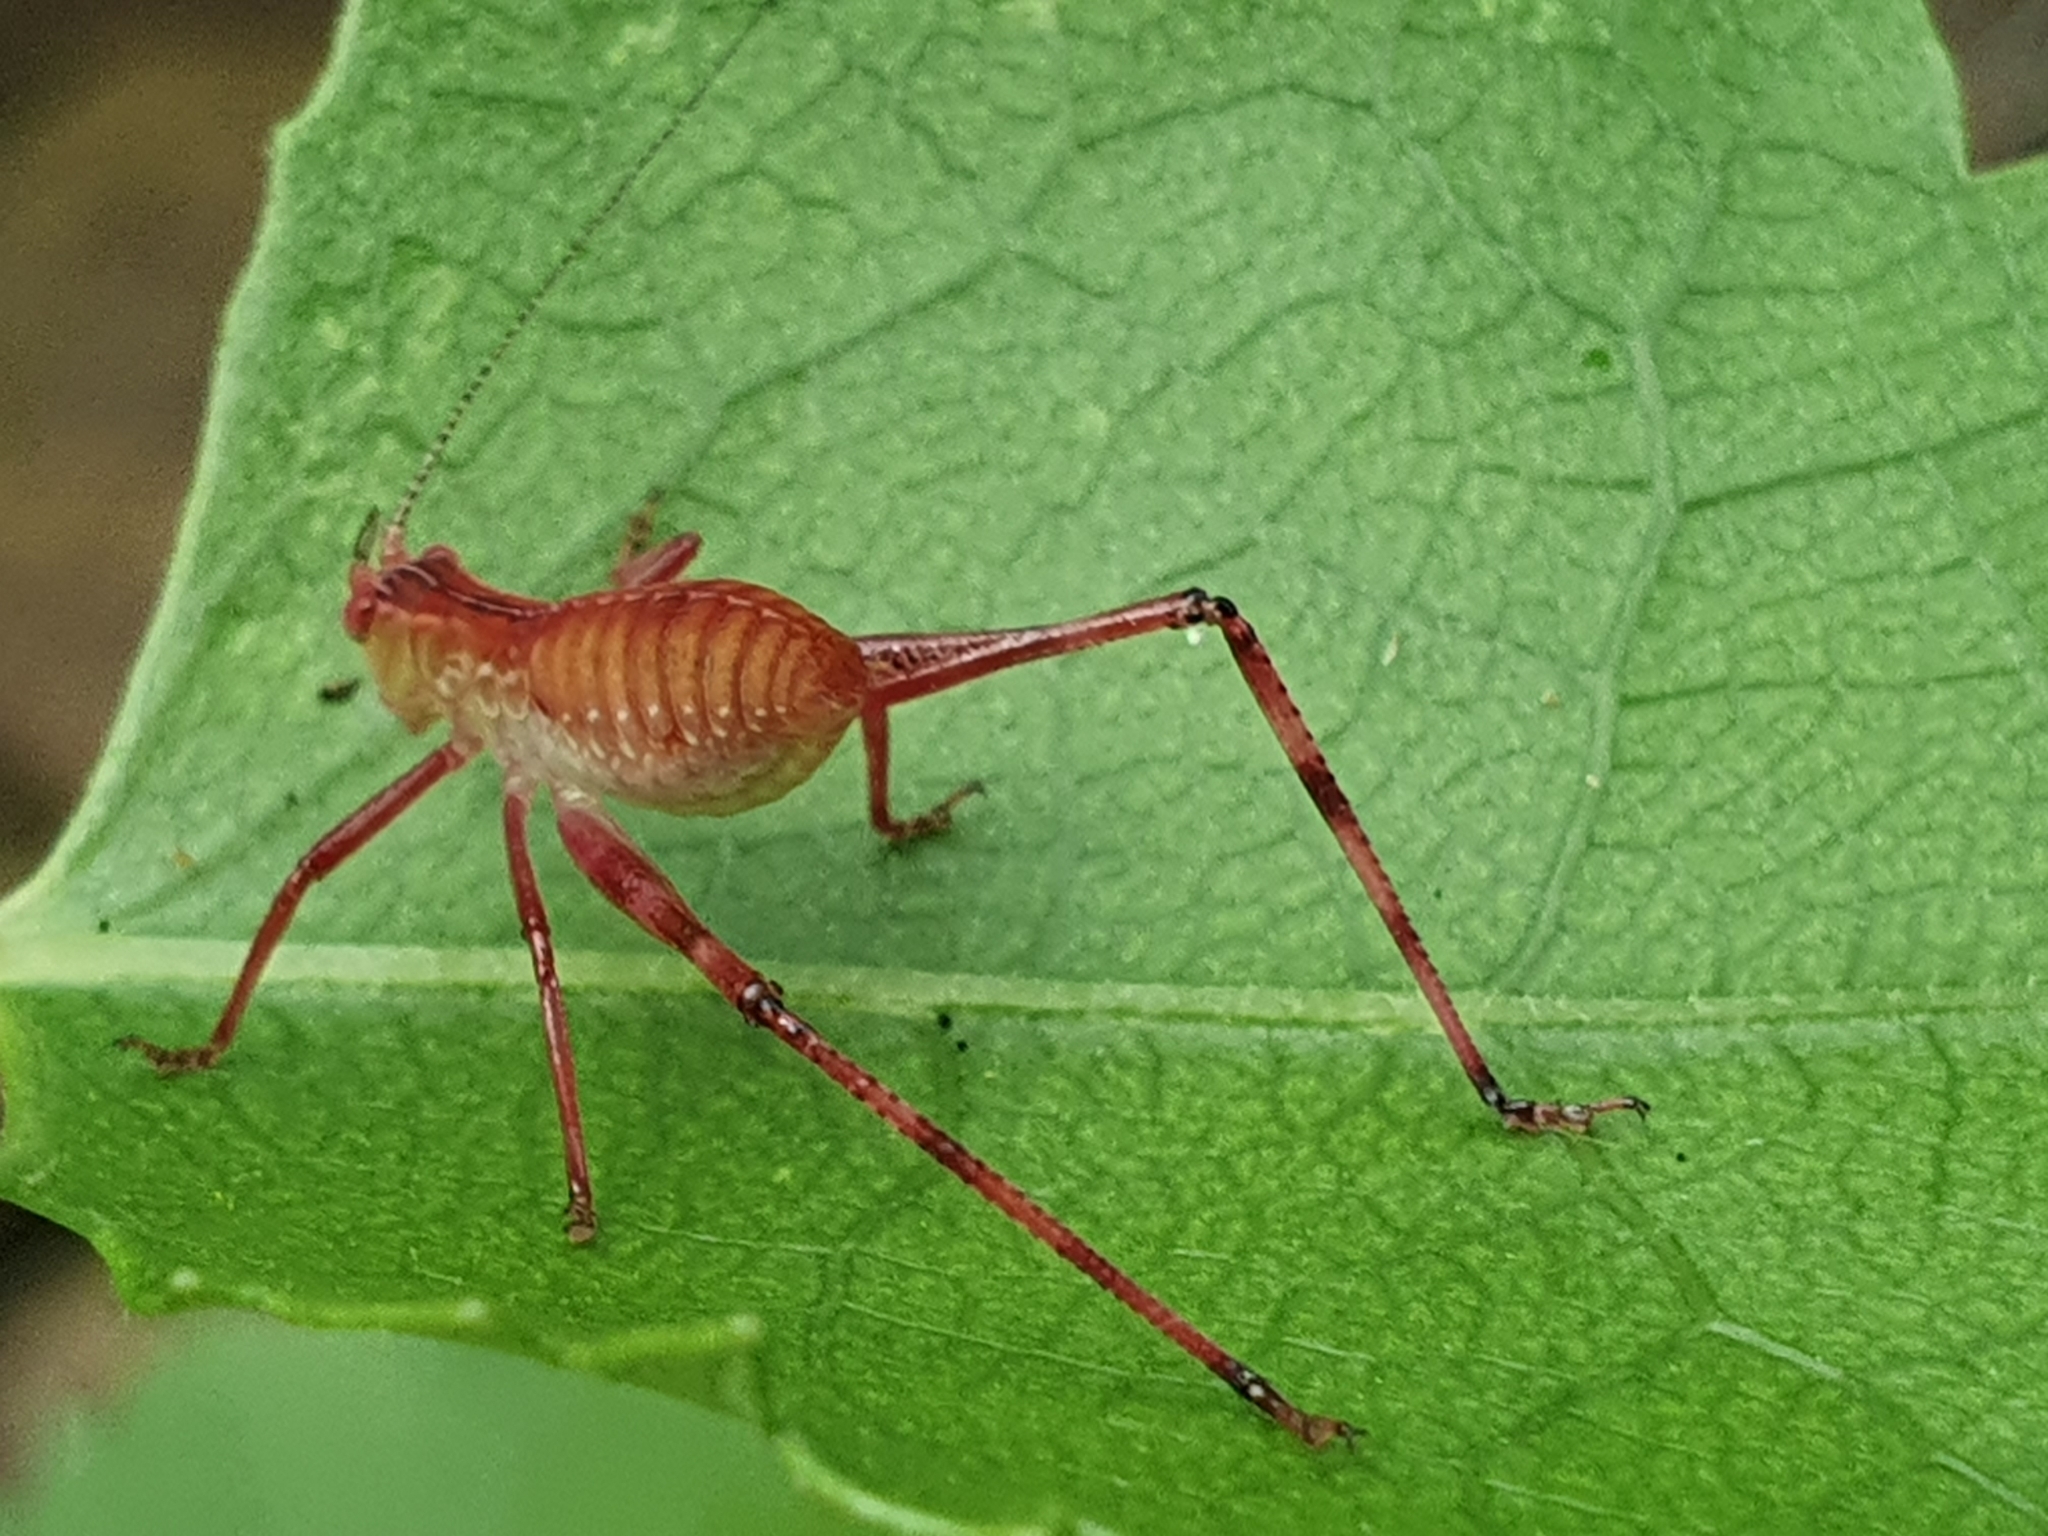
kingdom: Animalia
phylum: Arthropoda
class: Insecta
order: Orthoptera
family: Tettigoniidae
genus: Caedicia
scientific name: Caedicia simplex
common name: Common garden katydid
